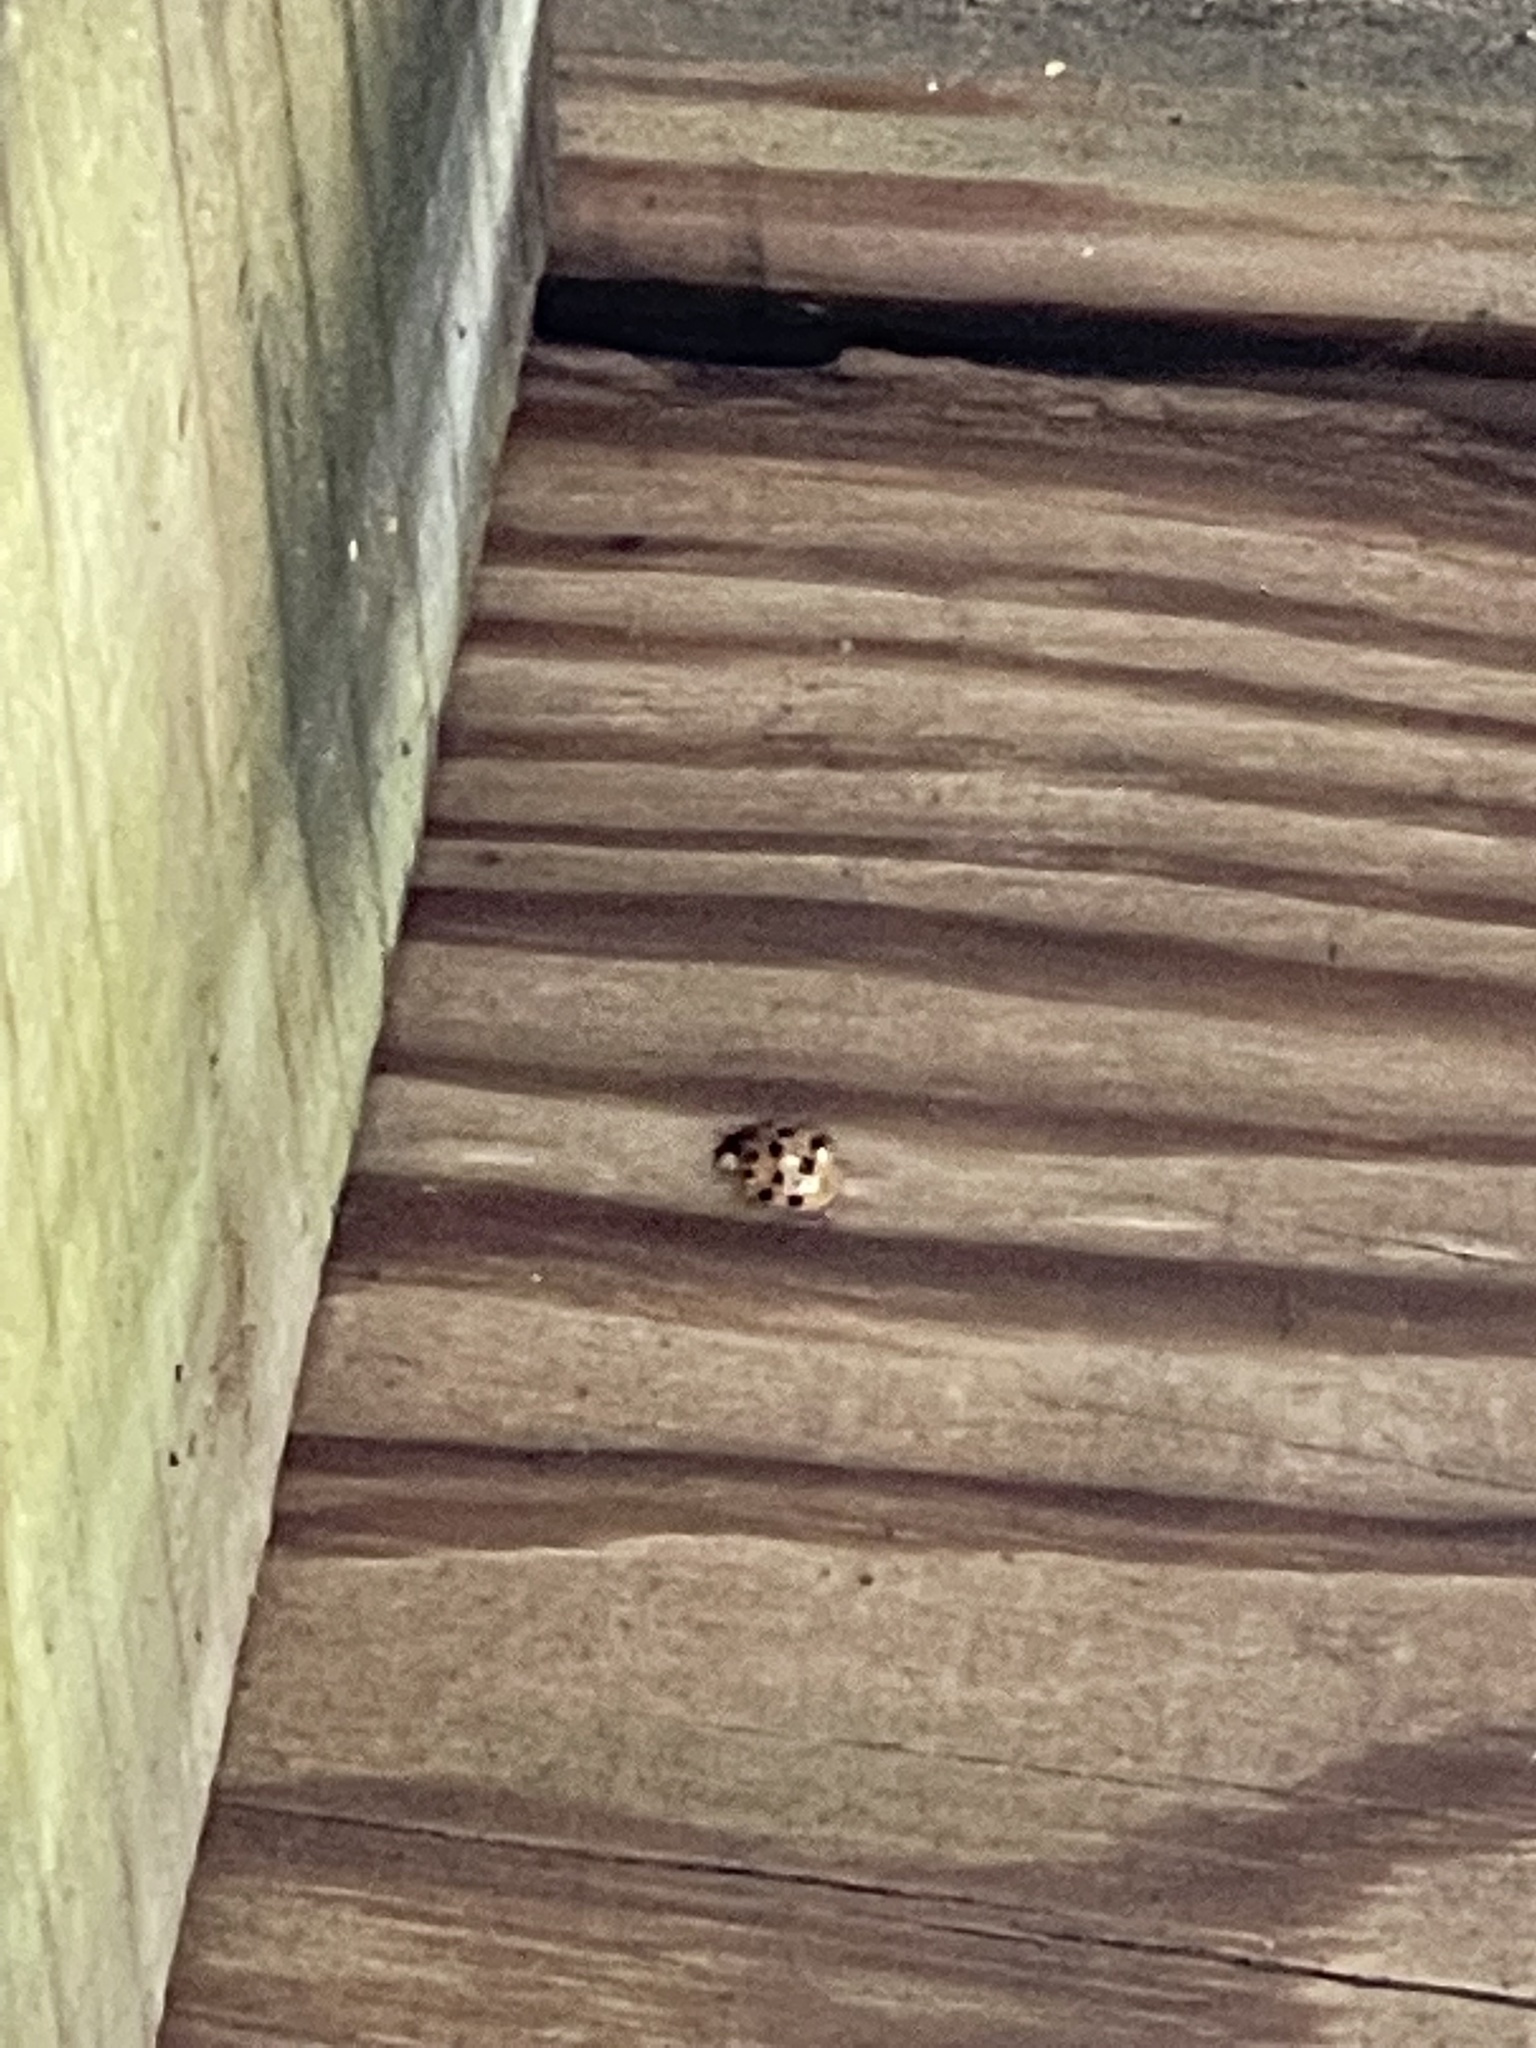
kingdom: Animalia
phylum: Arthropoda
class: Insecta
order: Coleoptera
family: Coccinellidae
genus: Harmonia
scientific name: Harmonia axyridis
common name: Harlequin ladybird
